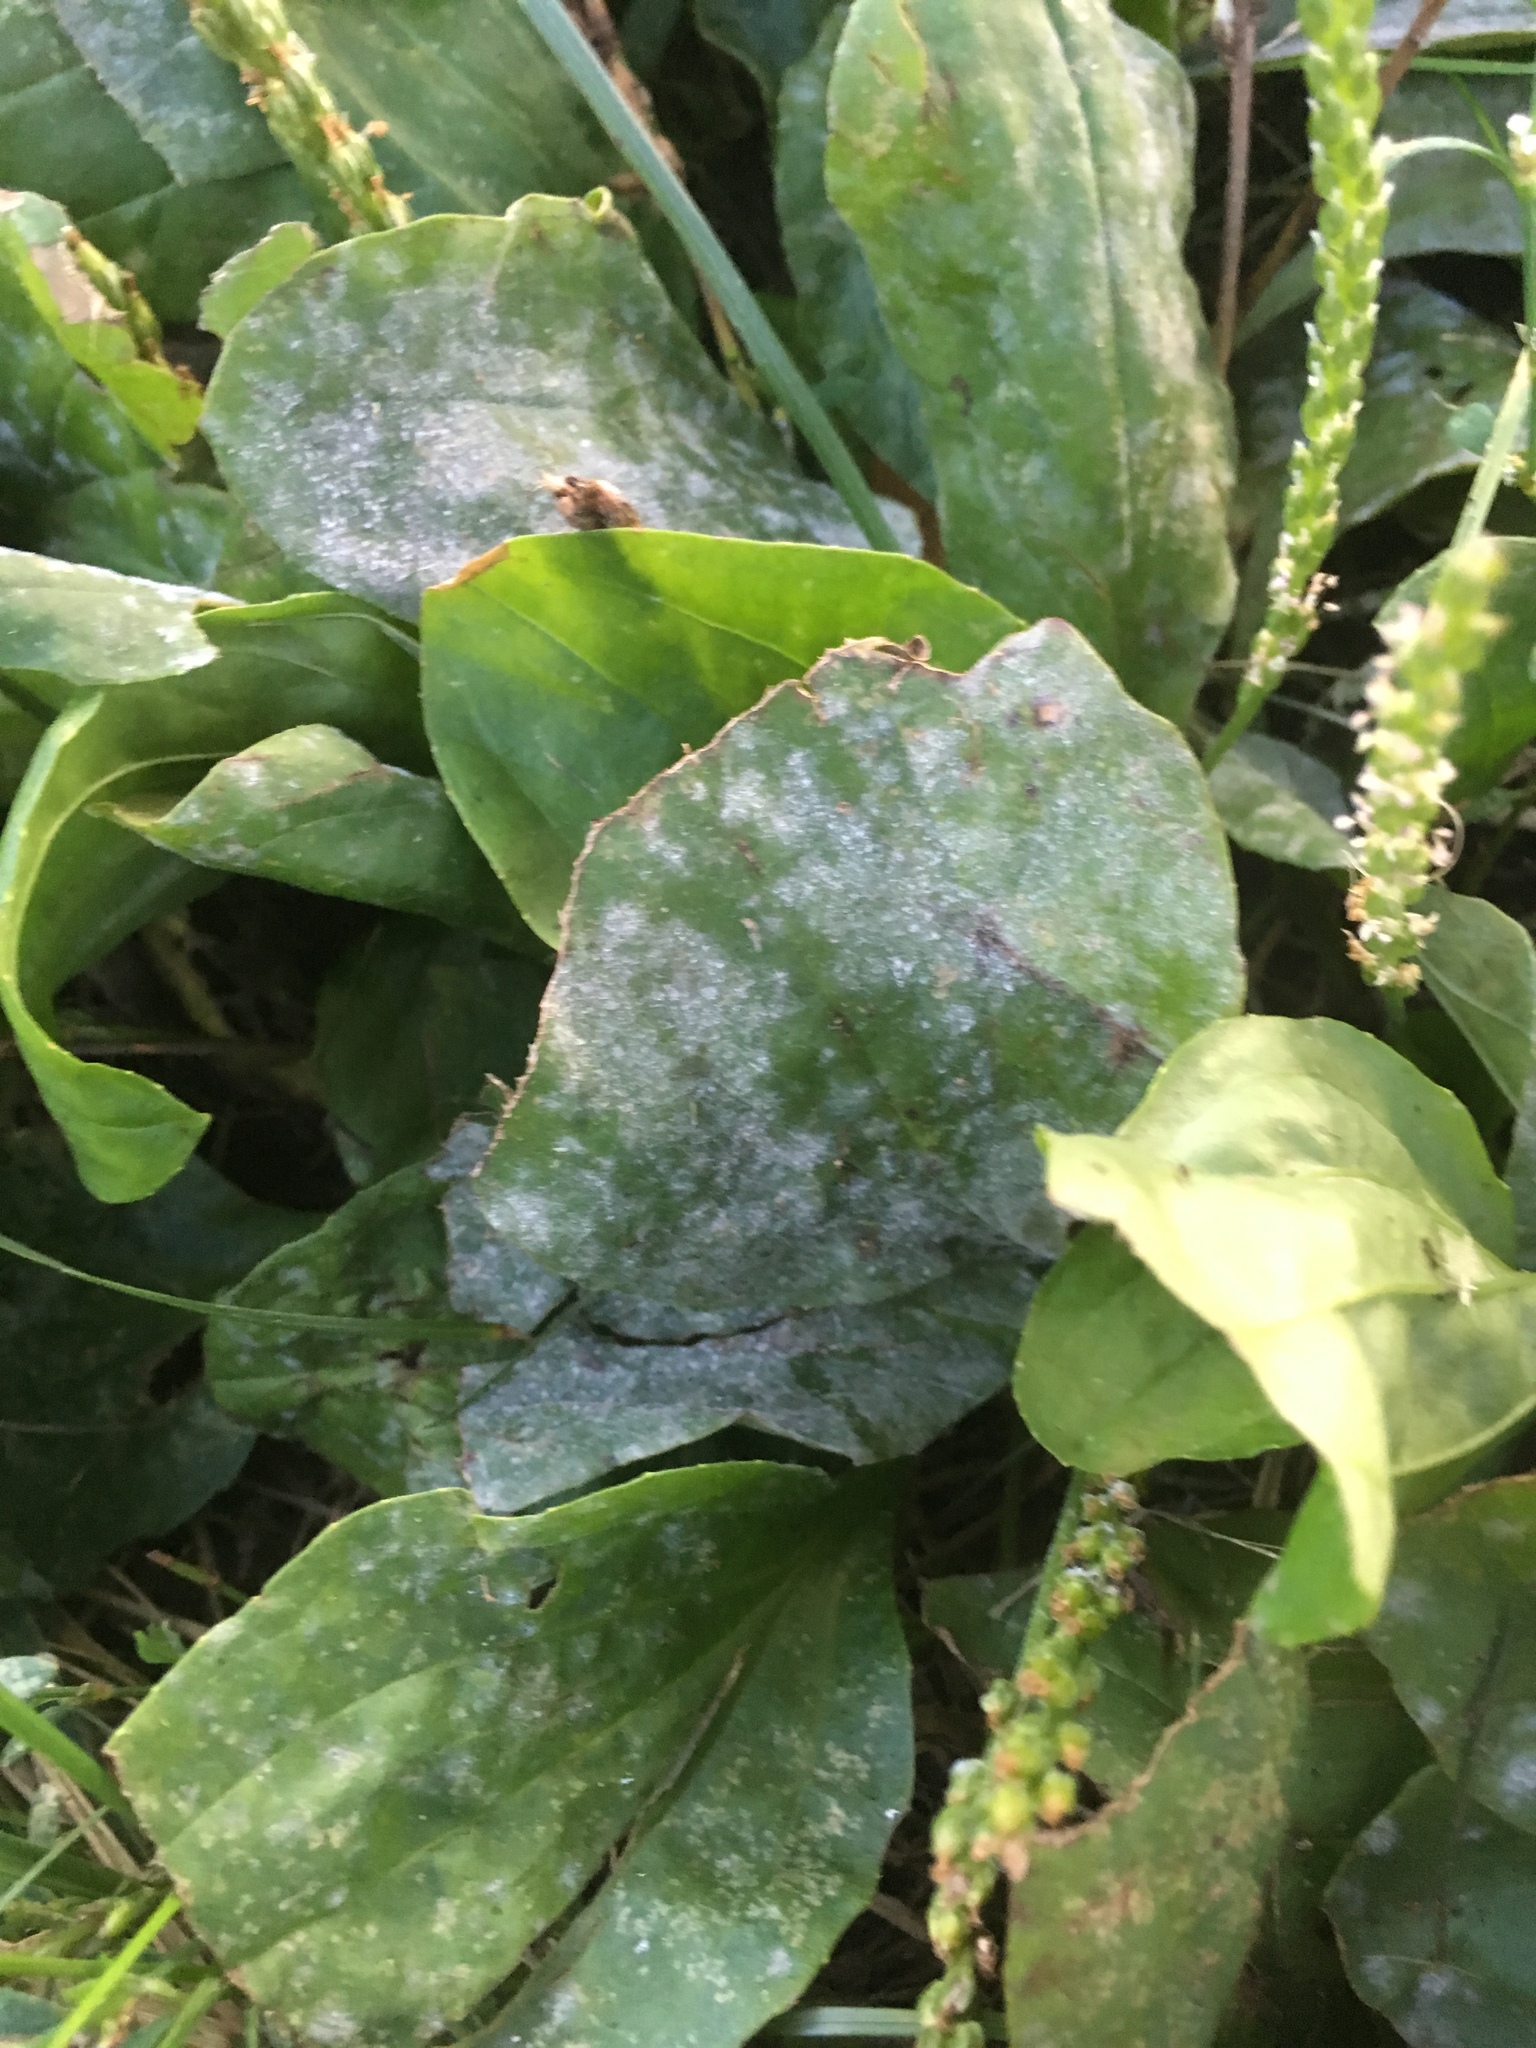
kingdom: Fungi
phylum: Ascomycota
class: Leotiomycetes
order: Helotiales
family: Erysiphaceae
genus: Golovinomyces
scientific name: Golovinomyces sordidus
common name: Plantain mildew
